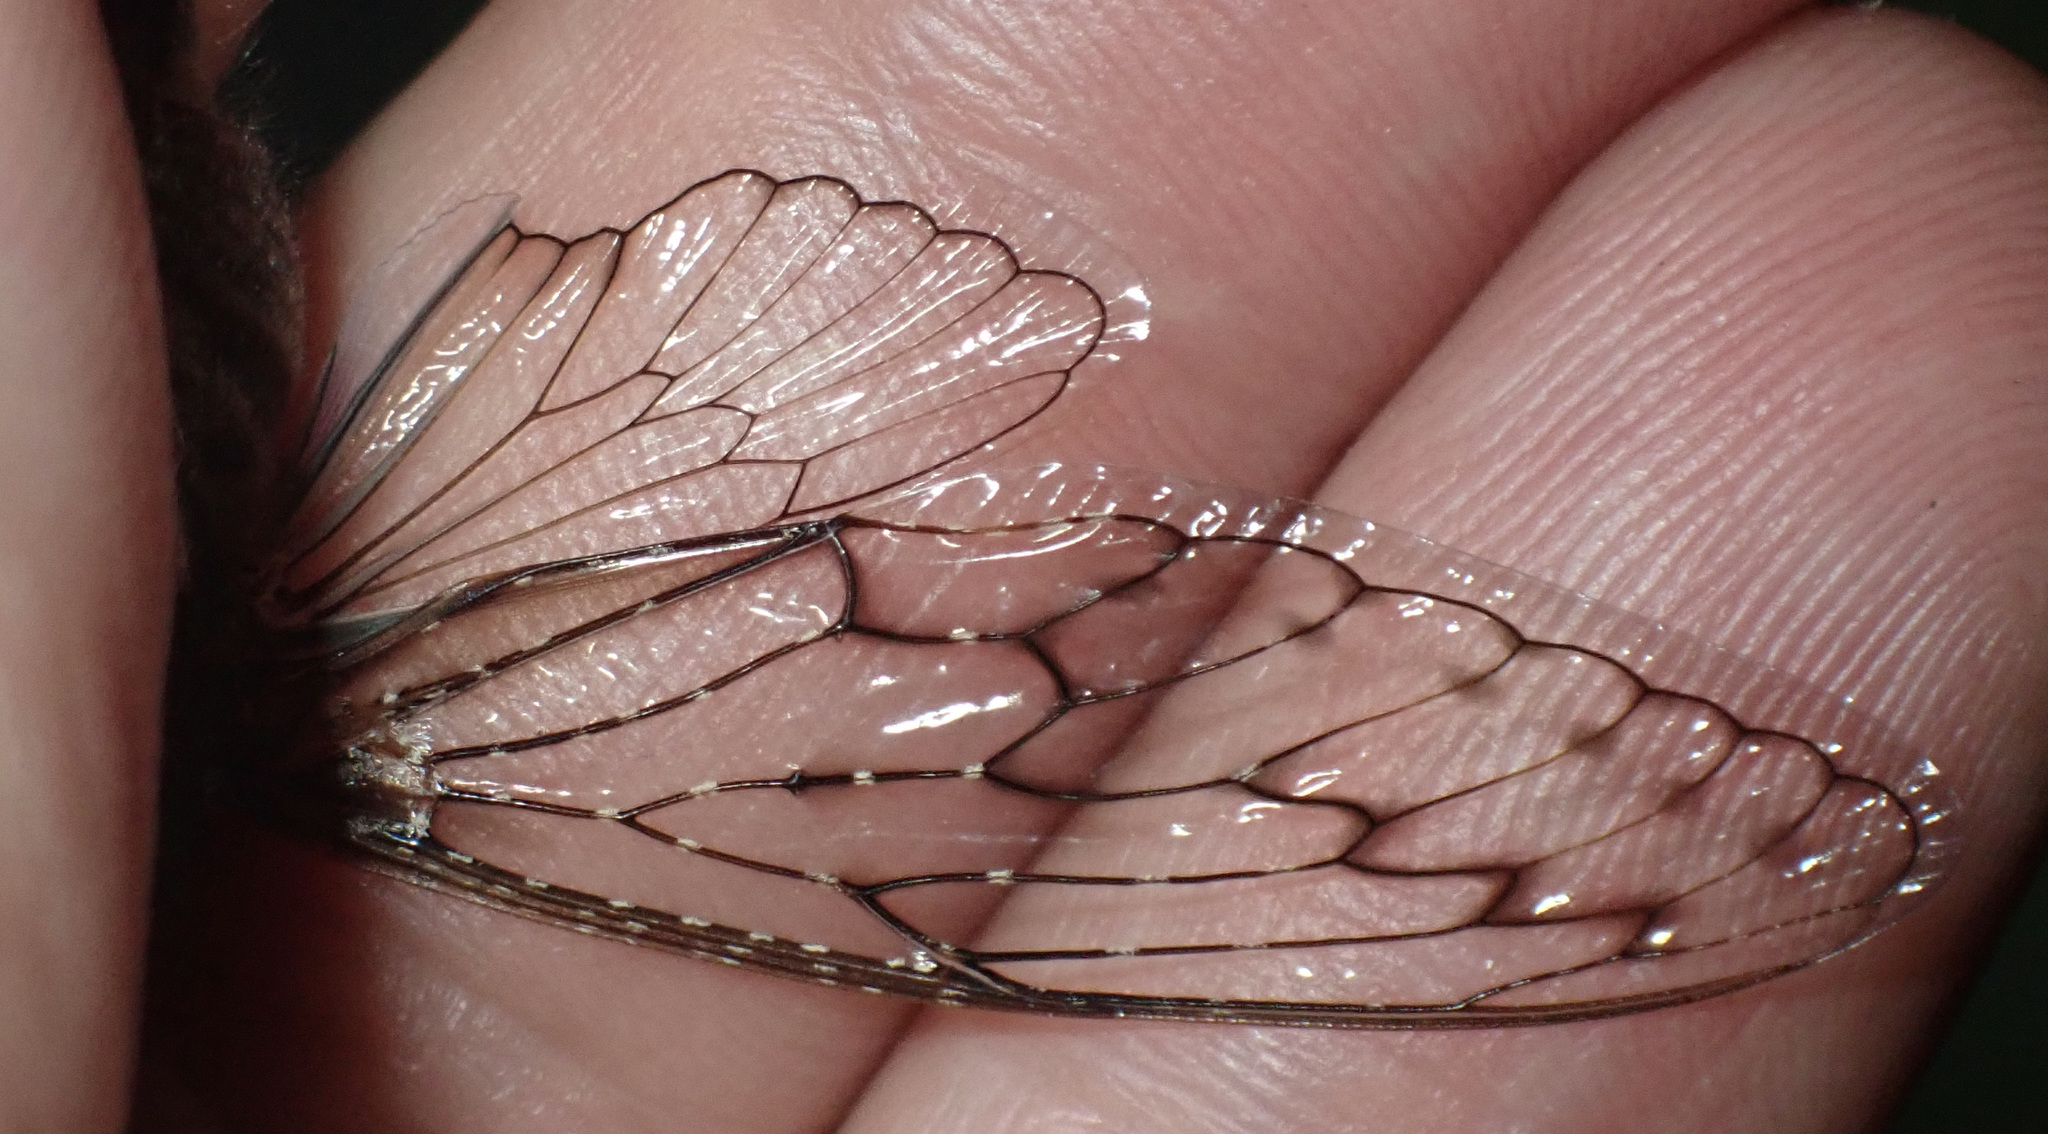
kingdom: Animalia
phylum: Arthropoda
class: Insecta
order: Hemiptera
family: Cicadidae
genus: Brevisiana
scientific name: Brevisiana brevis
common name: Shrill thorntree cicada
